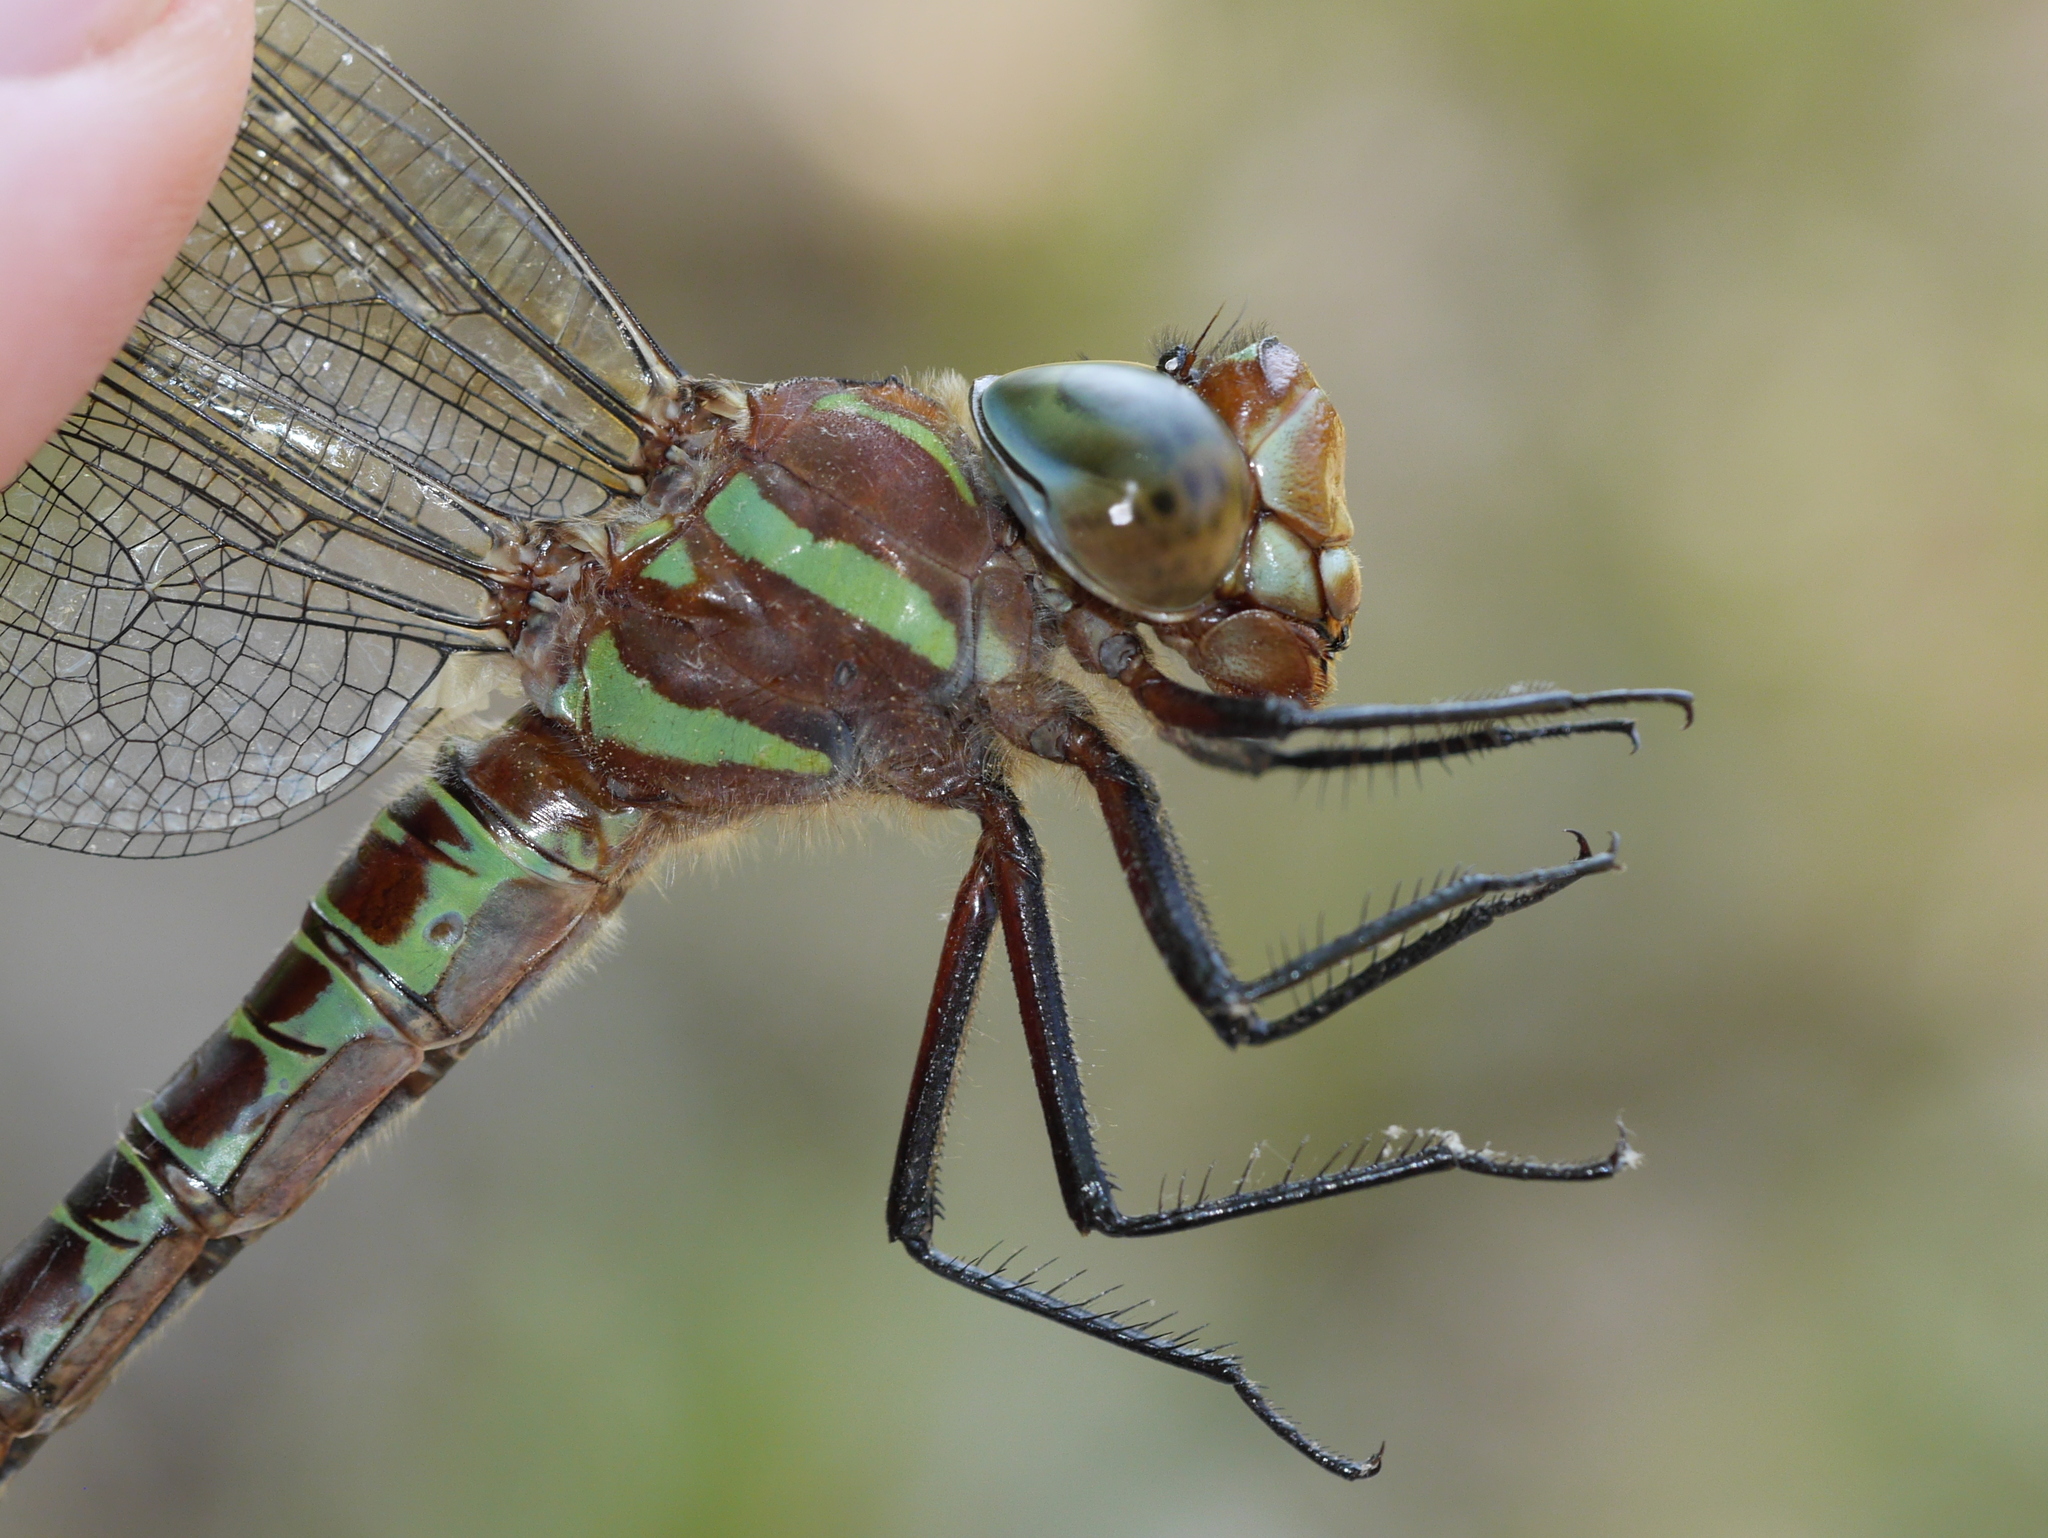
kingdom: Animalia
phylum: Arthropoda
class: Insecta
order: Odonata
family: Aeshnidae
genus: Epiaeschna
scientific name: Epiaeschna heros
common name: Swamp darner
